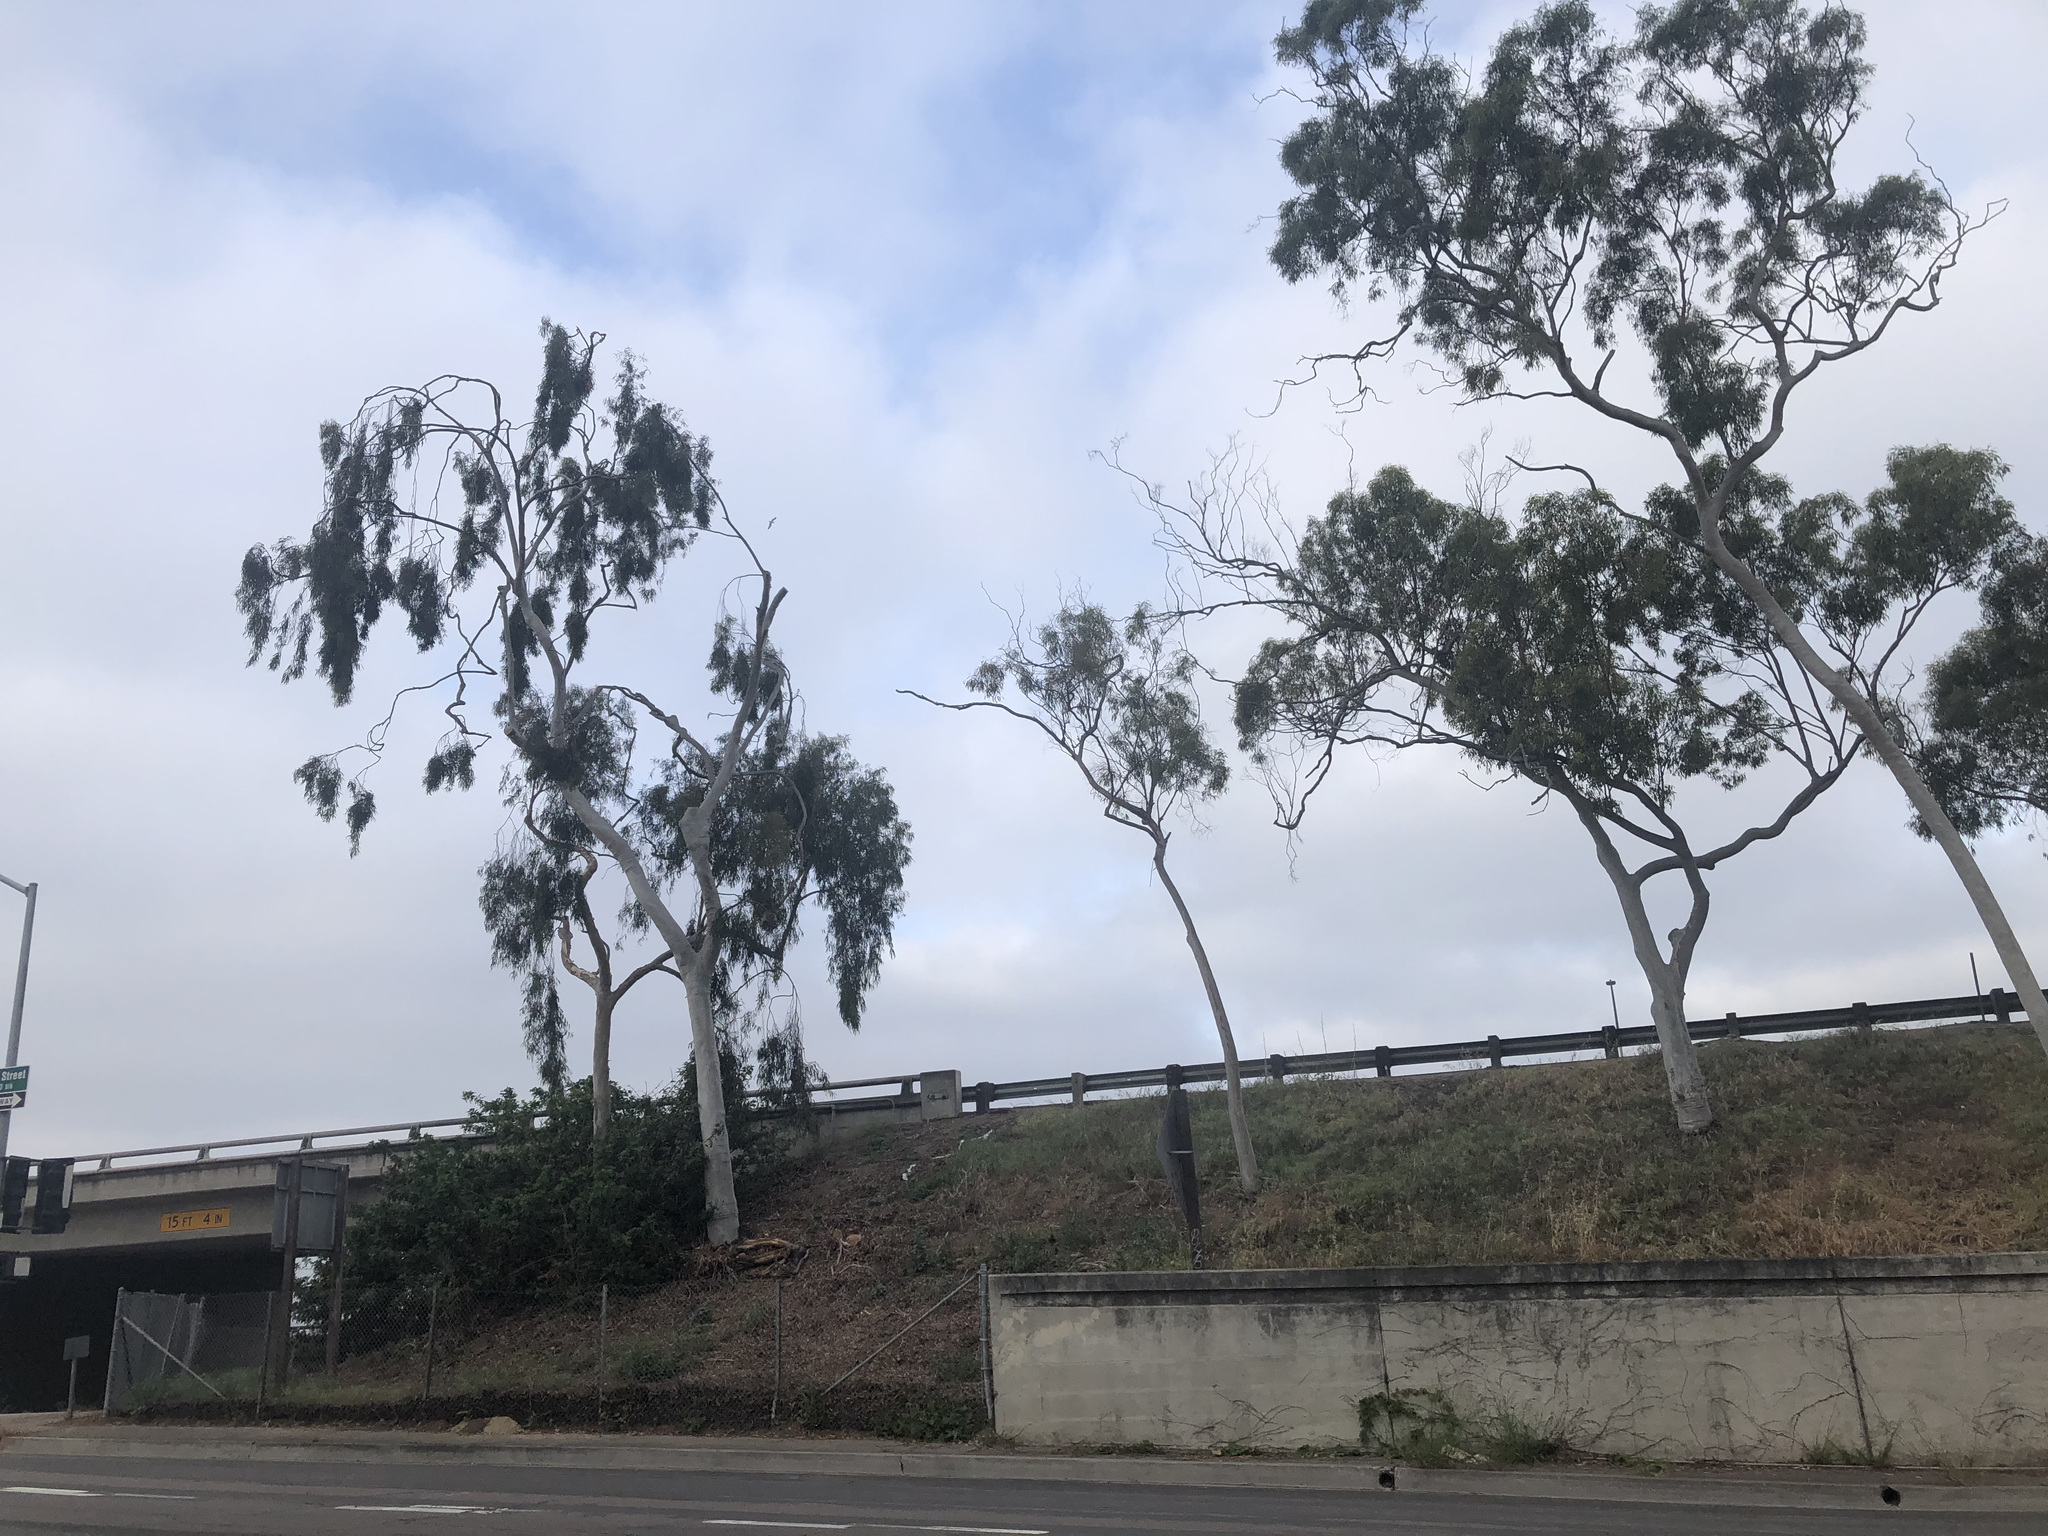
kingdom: Plantae
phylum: Tracheophyta
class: Magnoliopsida
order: Myrtales
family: Myrtaceae
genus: Corymbia
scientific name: Corymbia citriodora
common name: Lemonscented gum
